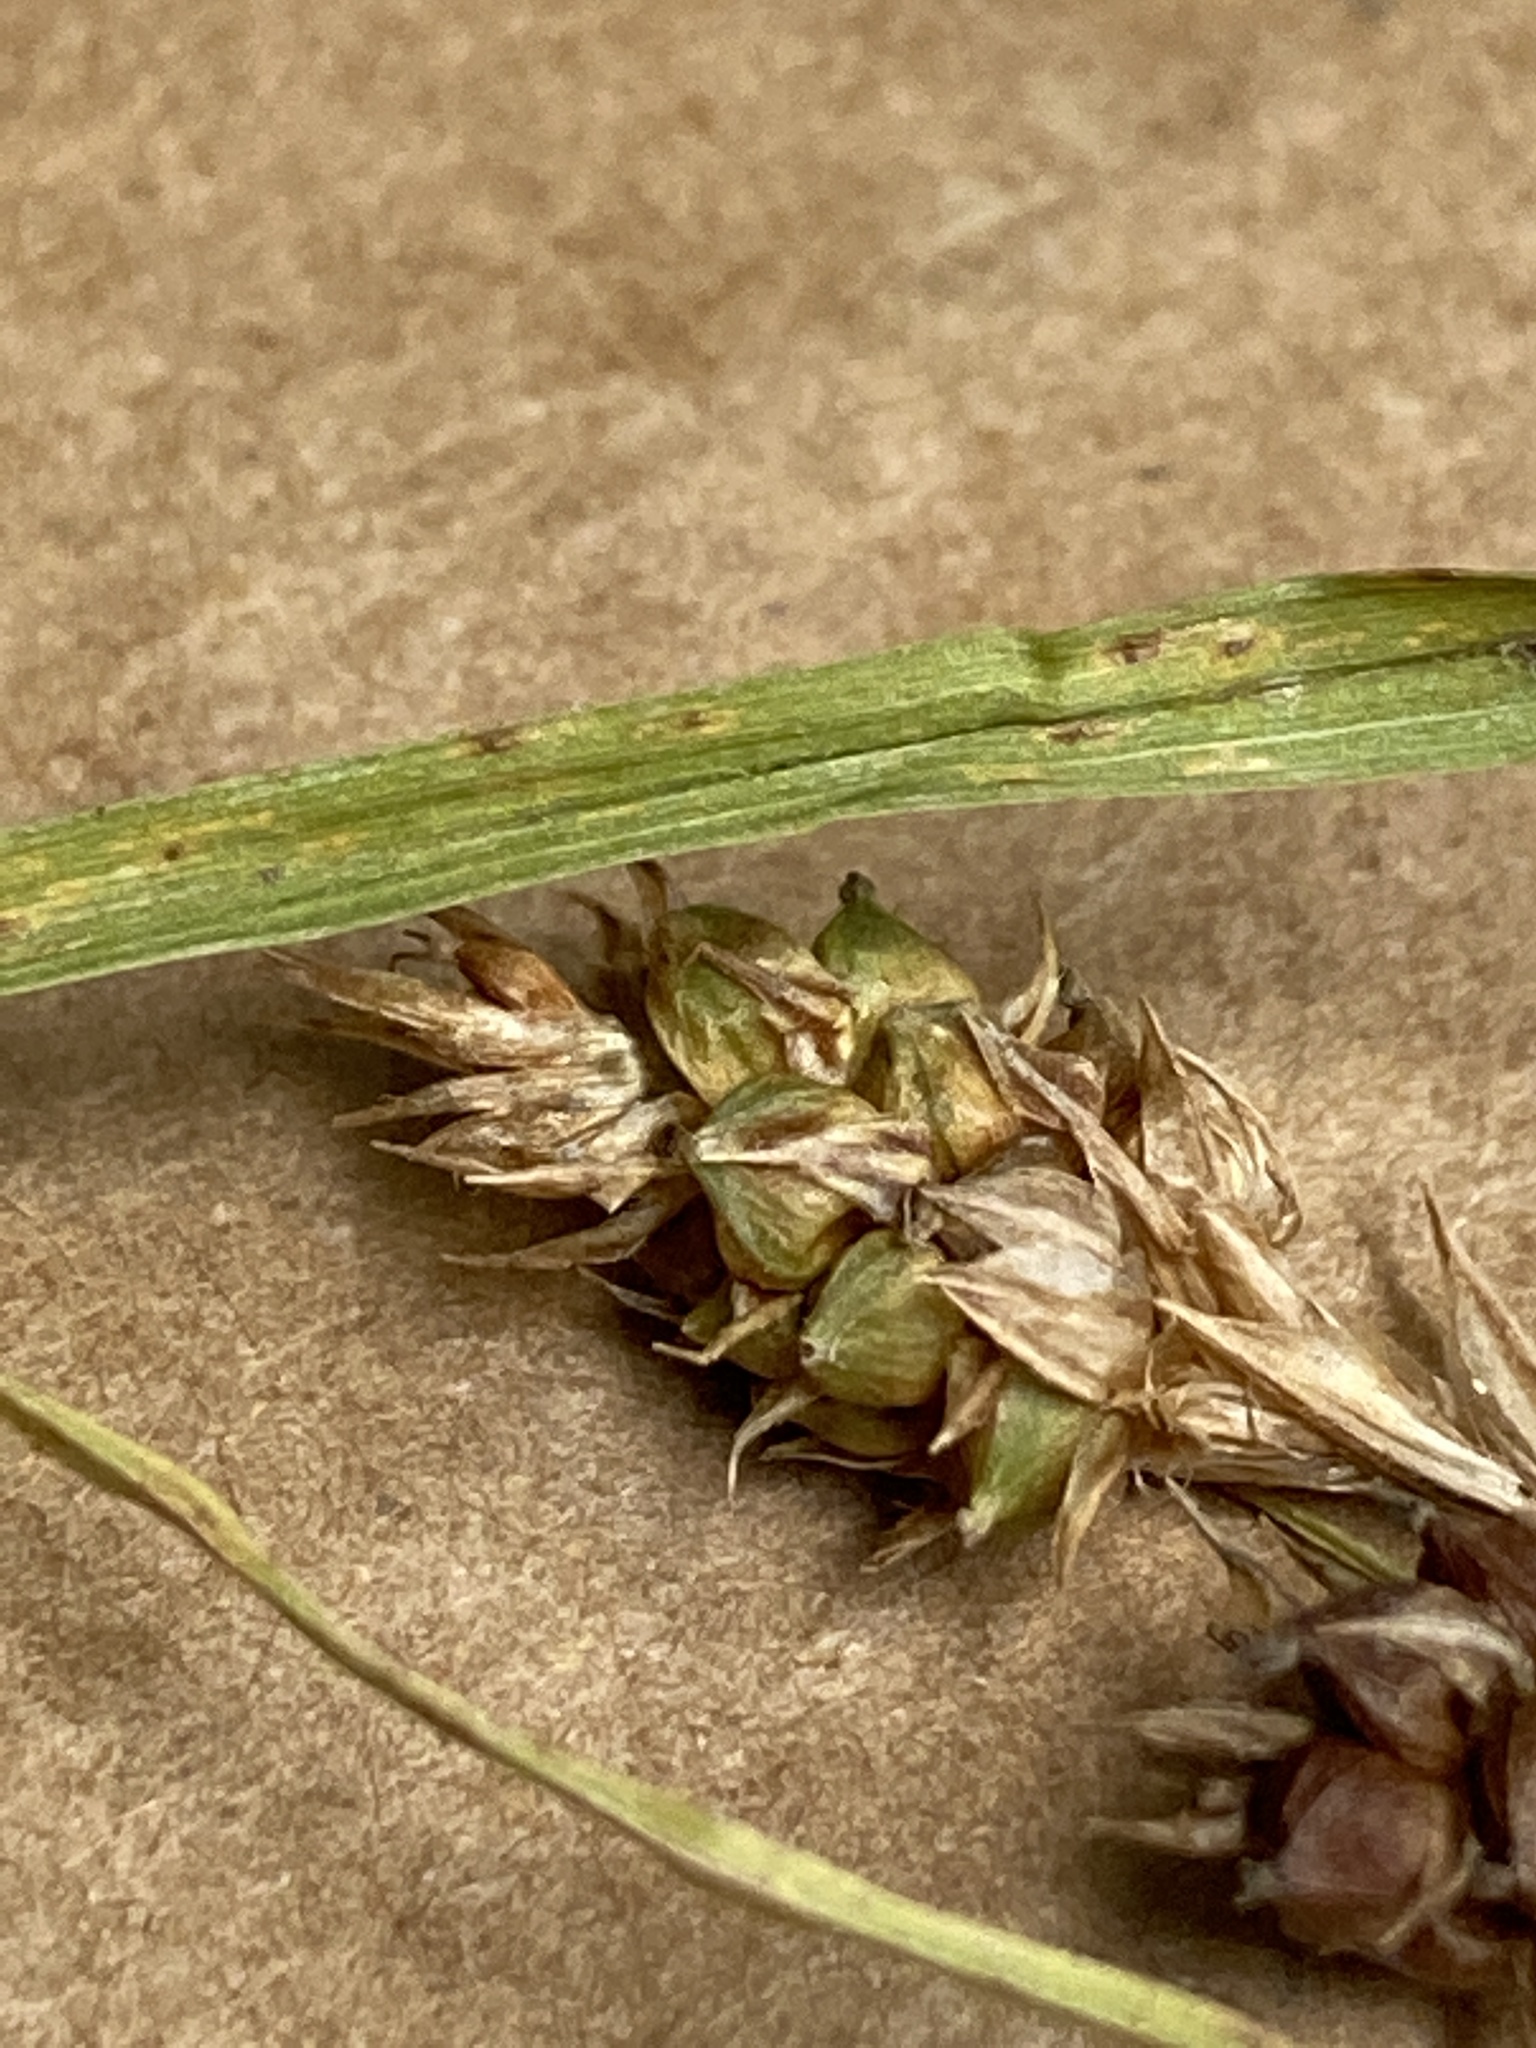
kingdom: Plantae
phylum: Tracheophyta
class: Liliopsida
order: Poales
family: Cyperaceae
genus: Carex
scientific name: Carex bushii
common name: Bush's sedge
